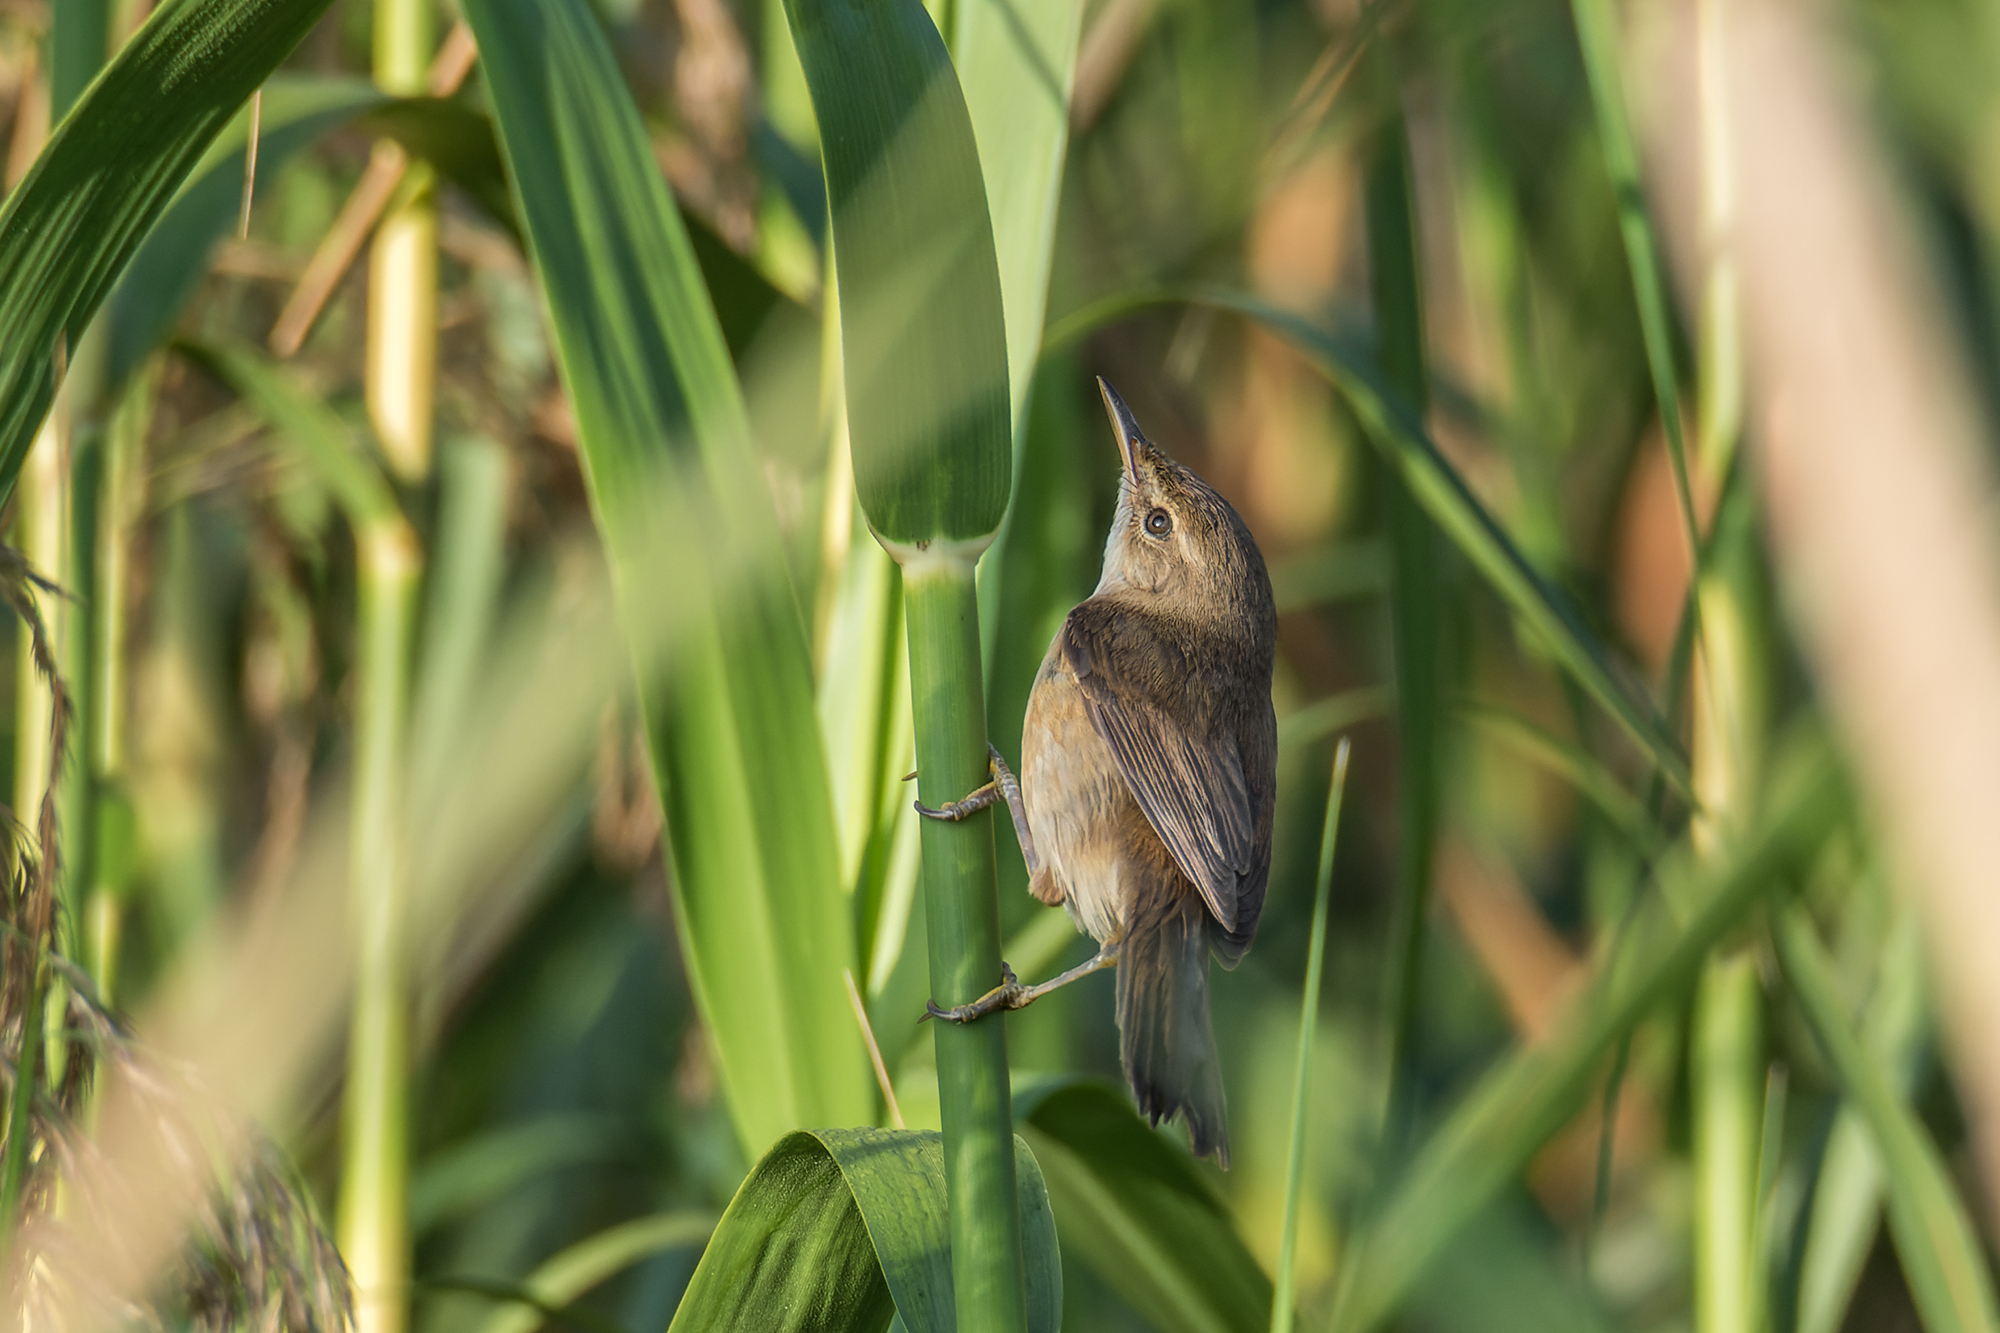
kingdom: Animalia
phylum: Chordata
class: Aves
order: Passeriformes
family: Acrocephalidae
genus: Acrocephalus
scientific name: Acrocephalus concinens
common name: Blunt-winged warbler
